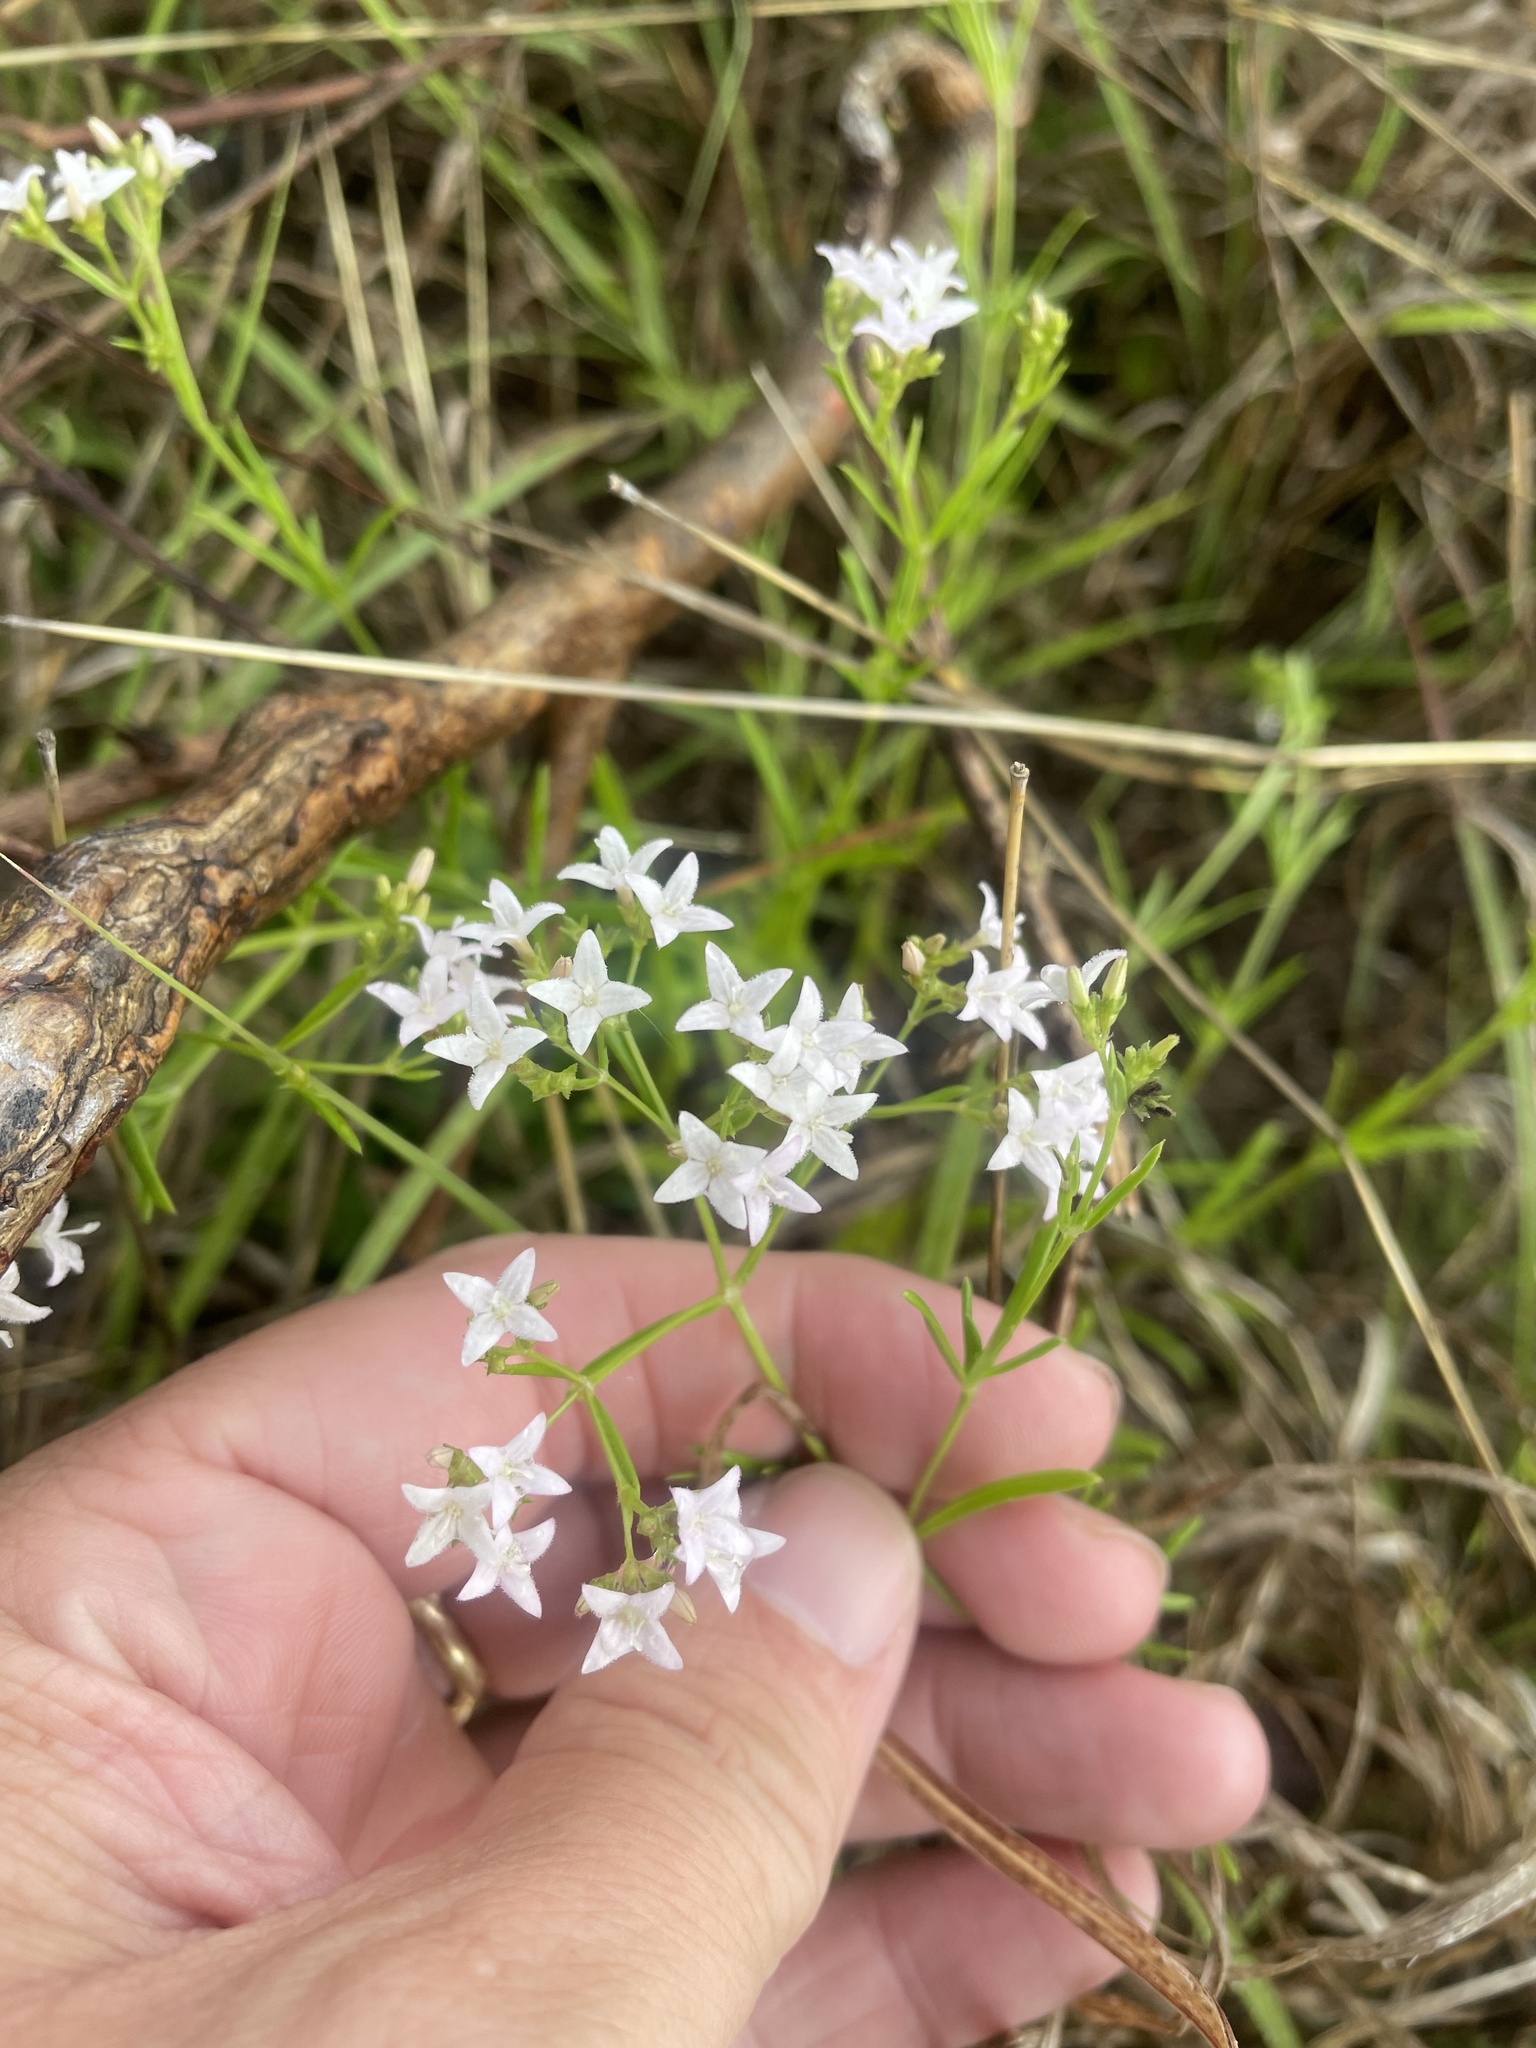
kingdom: Plantae
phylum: Tracheophyta
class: Magnoliopsida
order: Gentianales
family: Rubiaceae
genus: Stenaria
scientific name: Stenaria nigricans
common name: Diamondflowers
